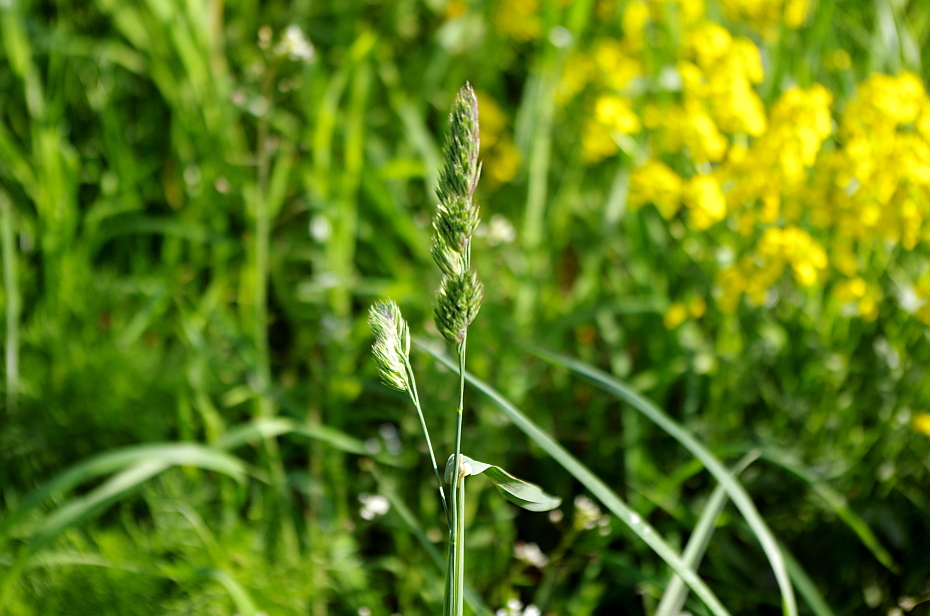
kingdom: Plantae
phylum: Tracheophyta
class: Liliopsida
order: Poales
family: Poaceae
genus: Dactylis
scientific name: Dactylis glomerata
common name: Orchardgrass
